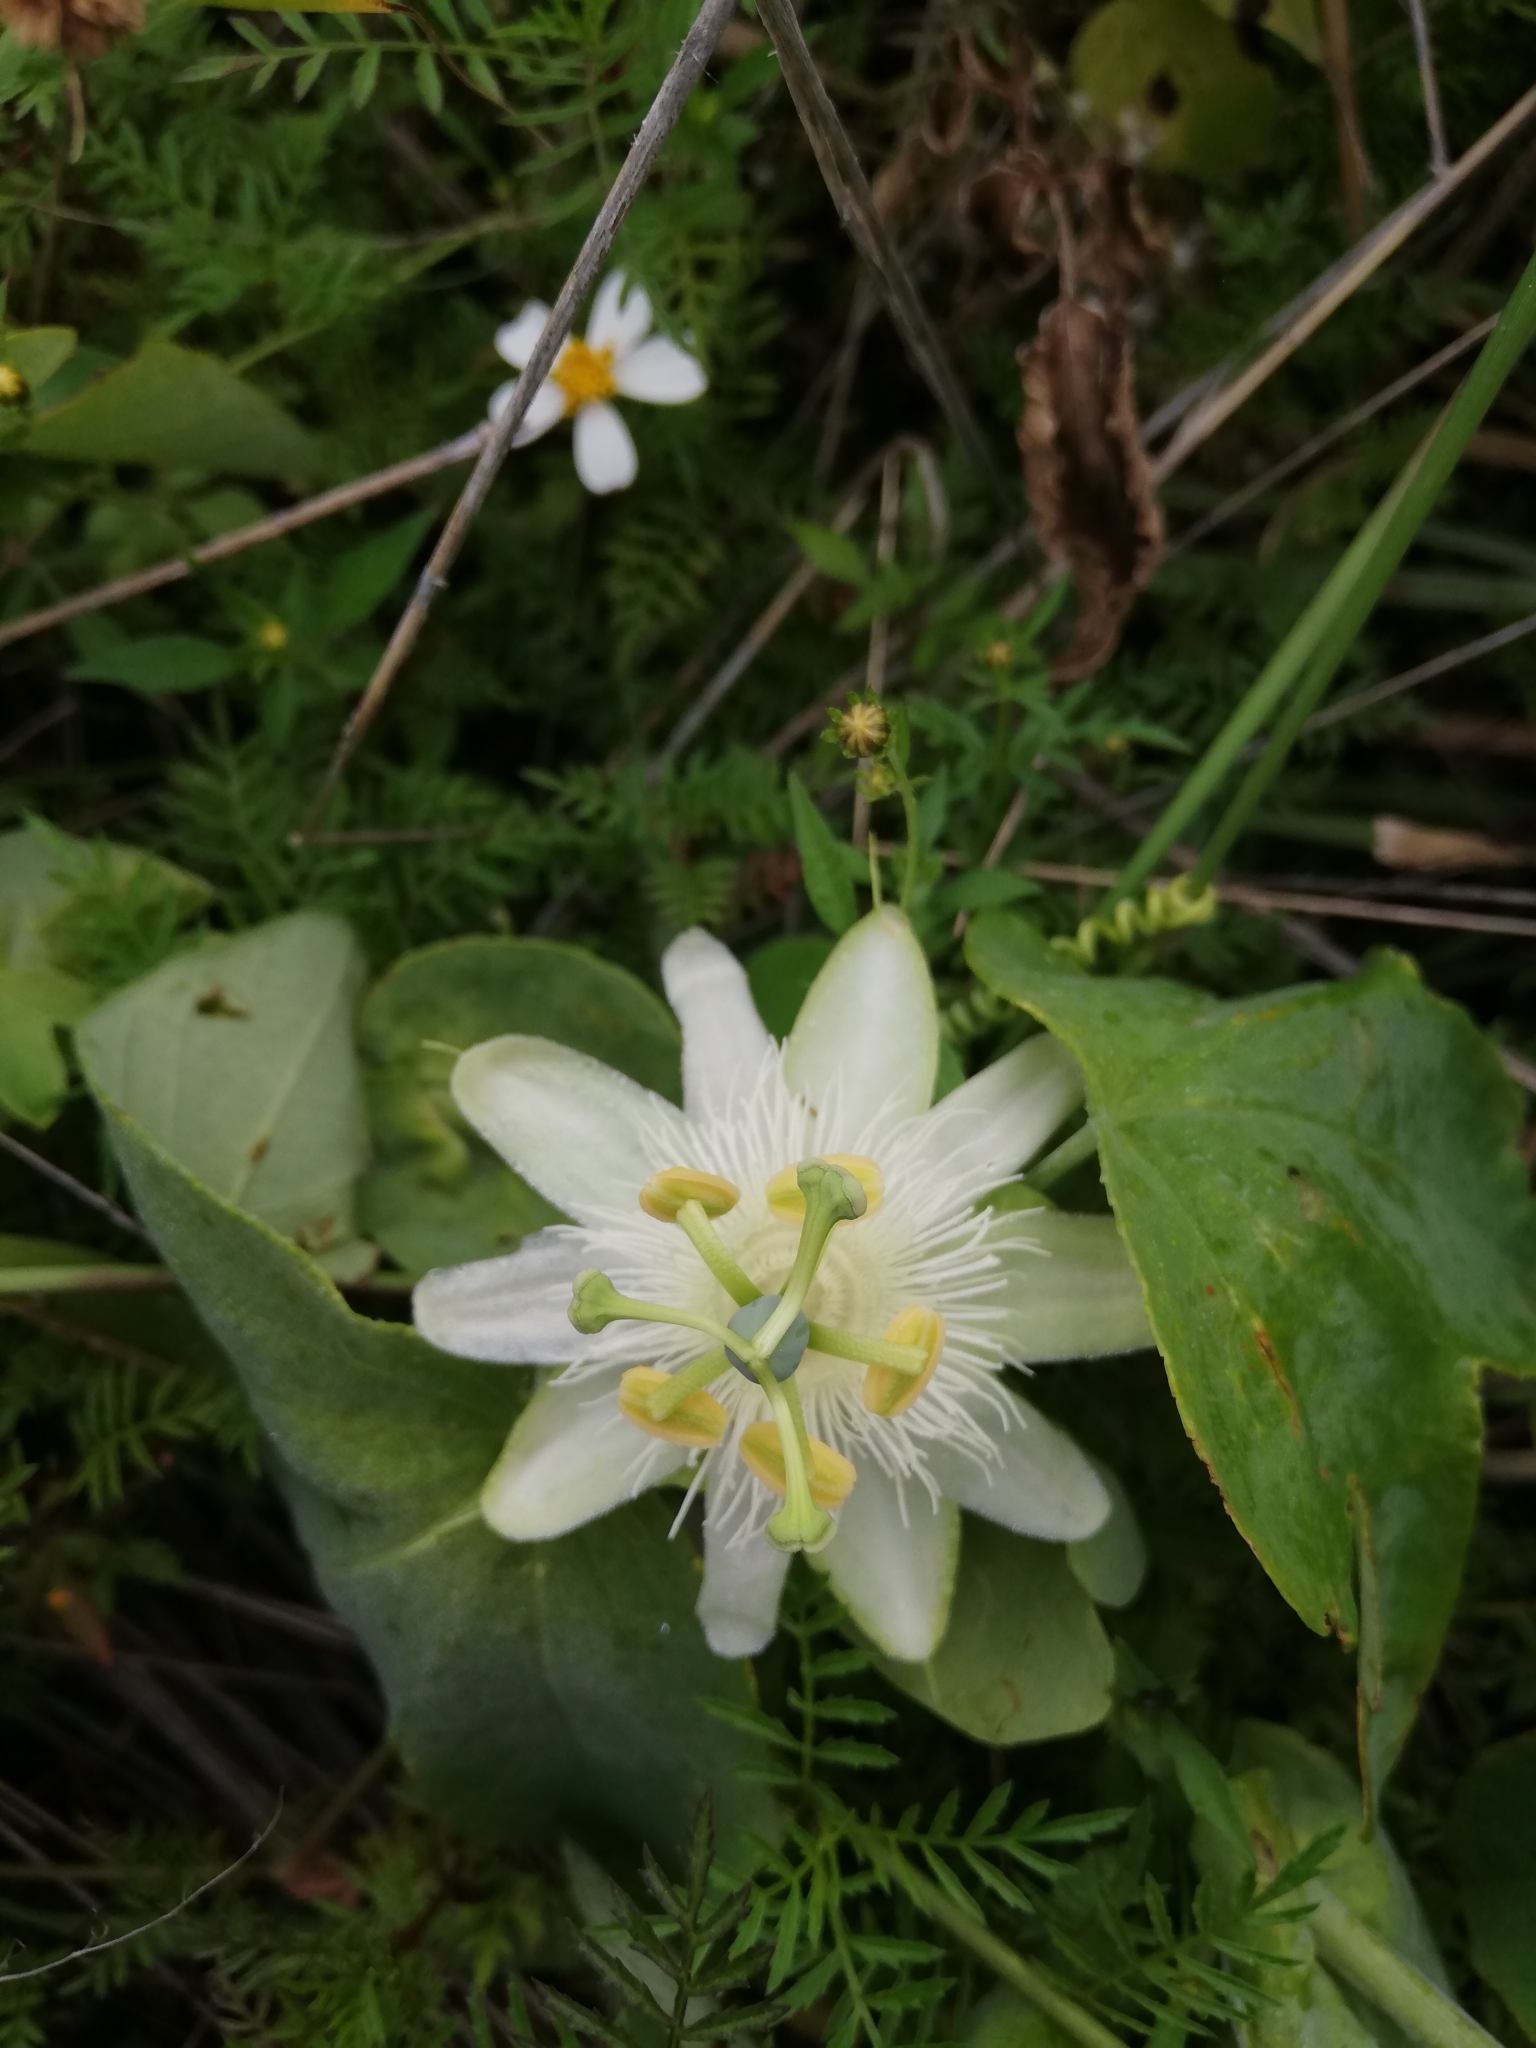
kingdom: Plantae
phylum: Tracheophyta
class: Magnoliopsida
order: Malpighiales
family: Passifloraceae
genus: Passiflora
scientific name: Passiflora subpeltata
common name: White passionflower
